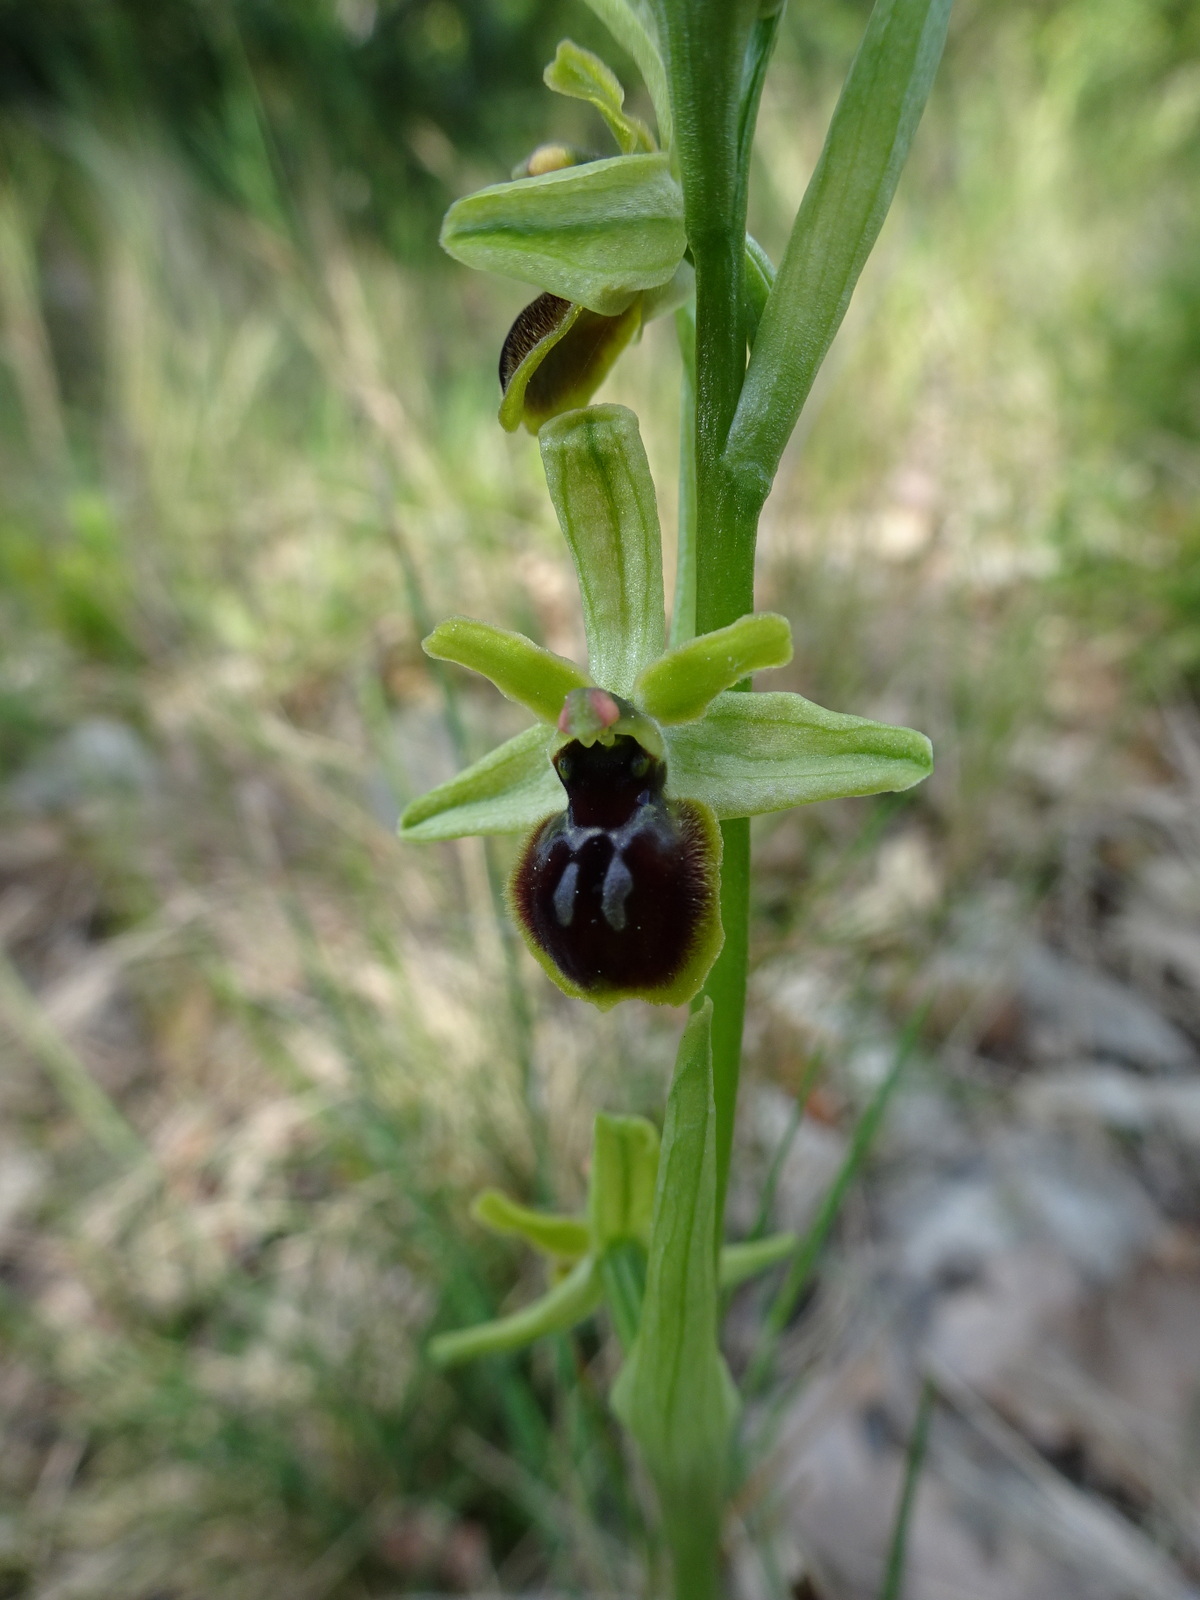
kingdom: Plantae
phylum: Tracheophyta
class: Liliopsida
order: Asparagales
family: Orchidaceae
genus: Ophrys
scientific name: Ophrys araneola
